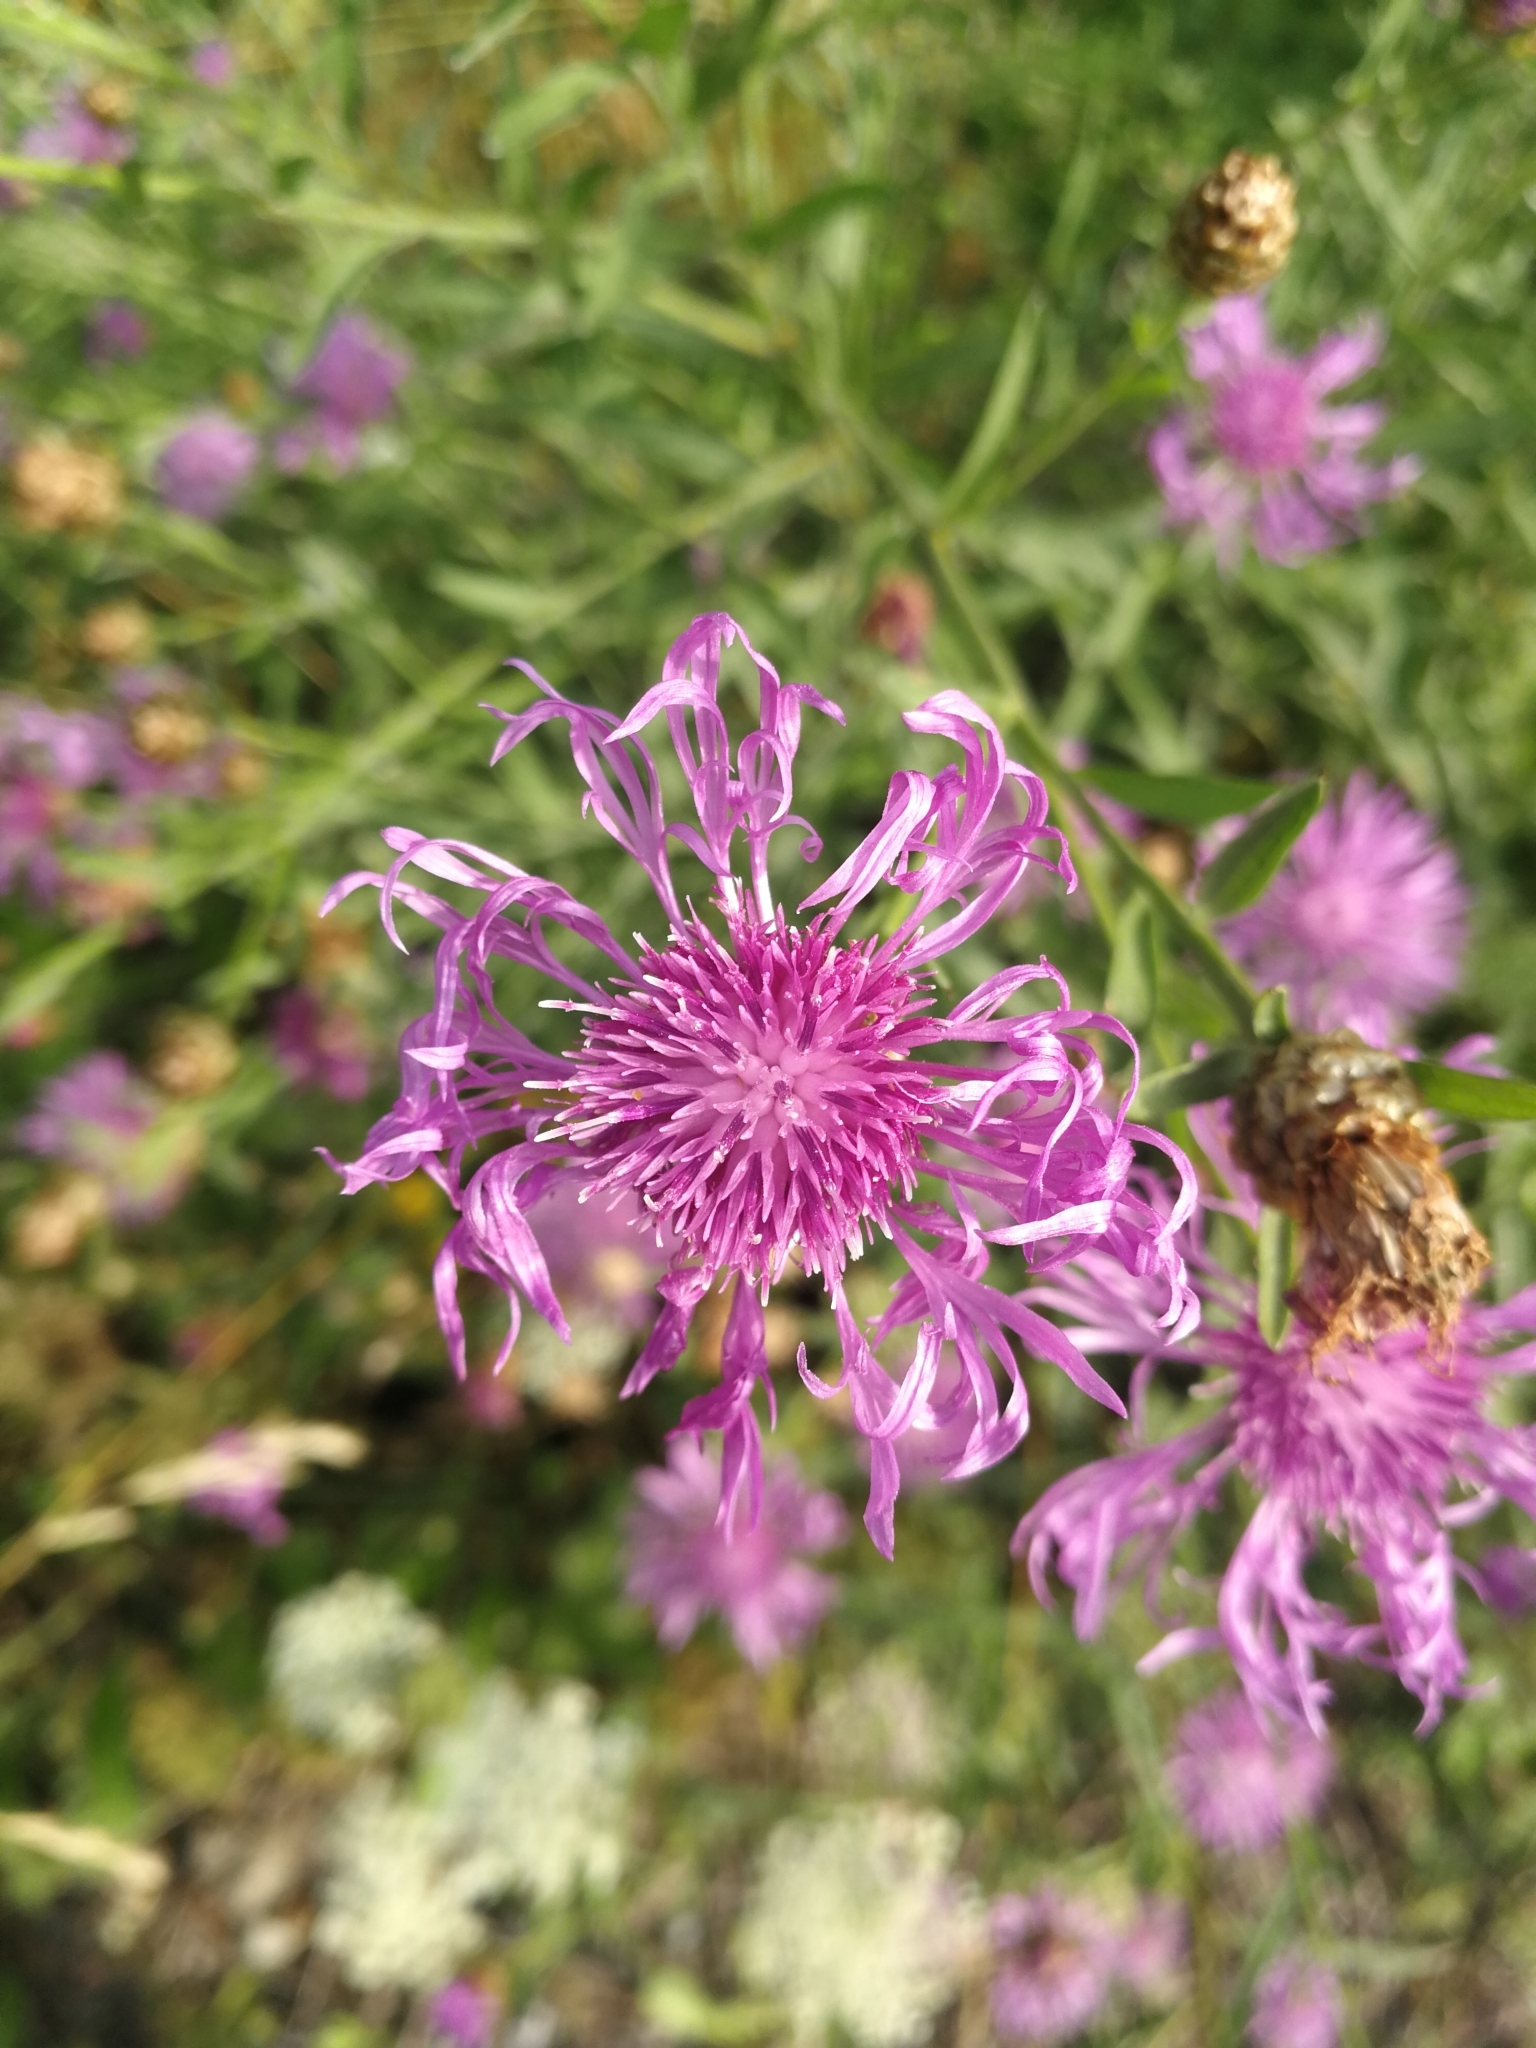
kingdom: Plantae
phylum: Tracheophyta
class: Magnoliopsida
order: Asterales
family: Asteraceae
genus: Centaurea
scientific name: Centaurea jacea
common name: Brown knapweed
